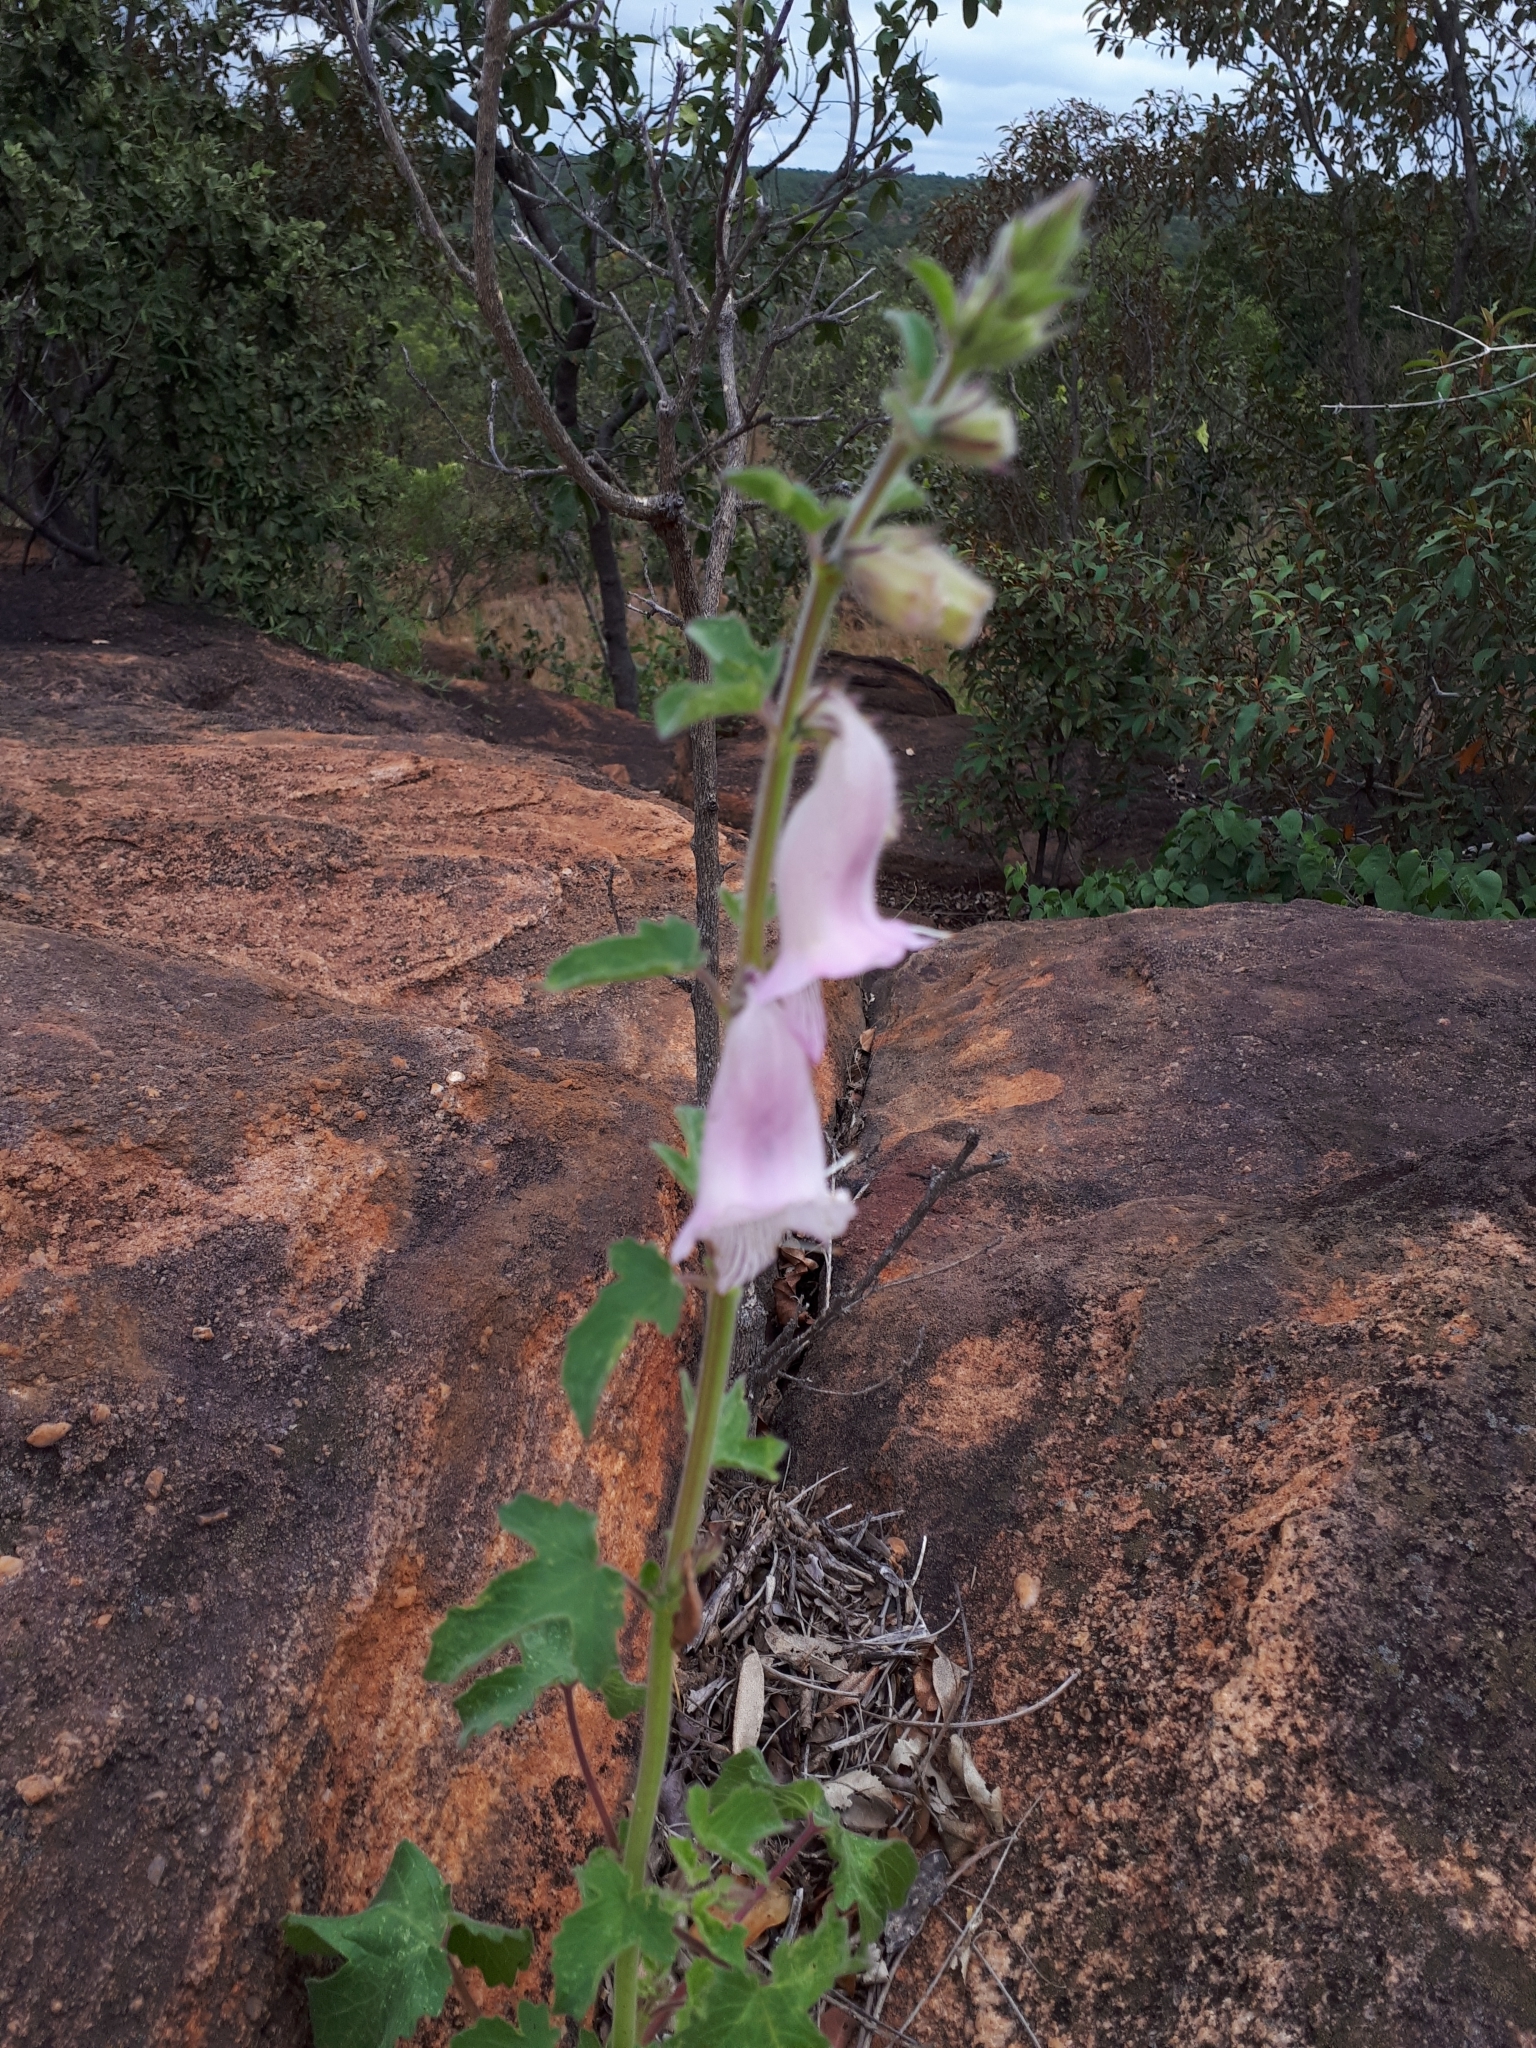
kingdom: Plantae
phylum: Tracheophyta
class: Magnoliopsida
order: Lamiales
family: Pedaliaceae
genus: Sesamum
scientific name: Sesamum trilobum
